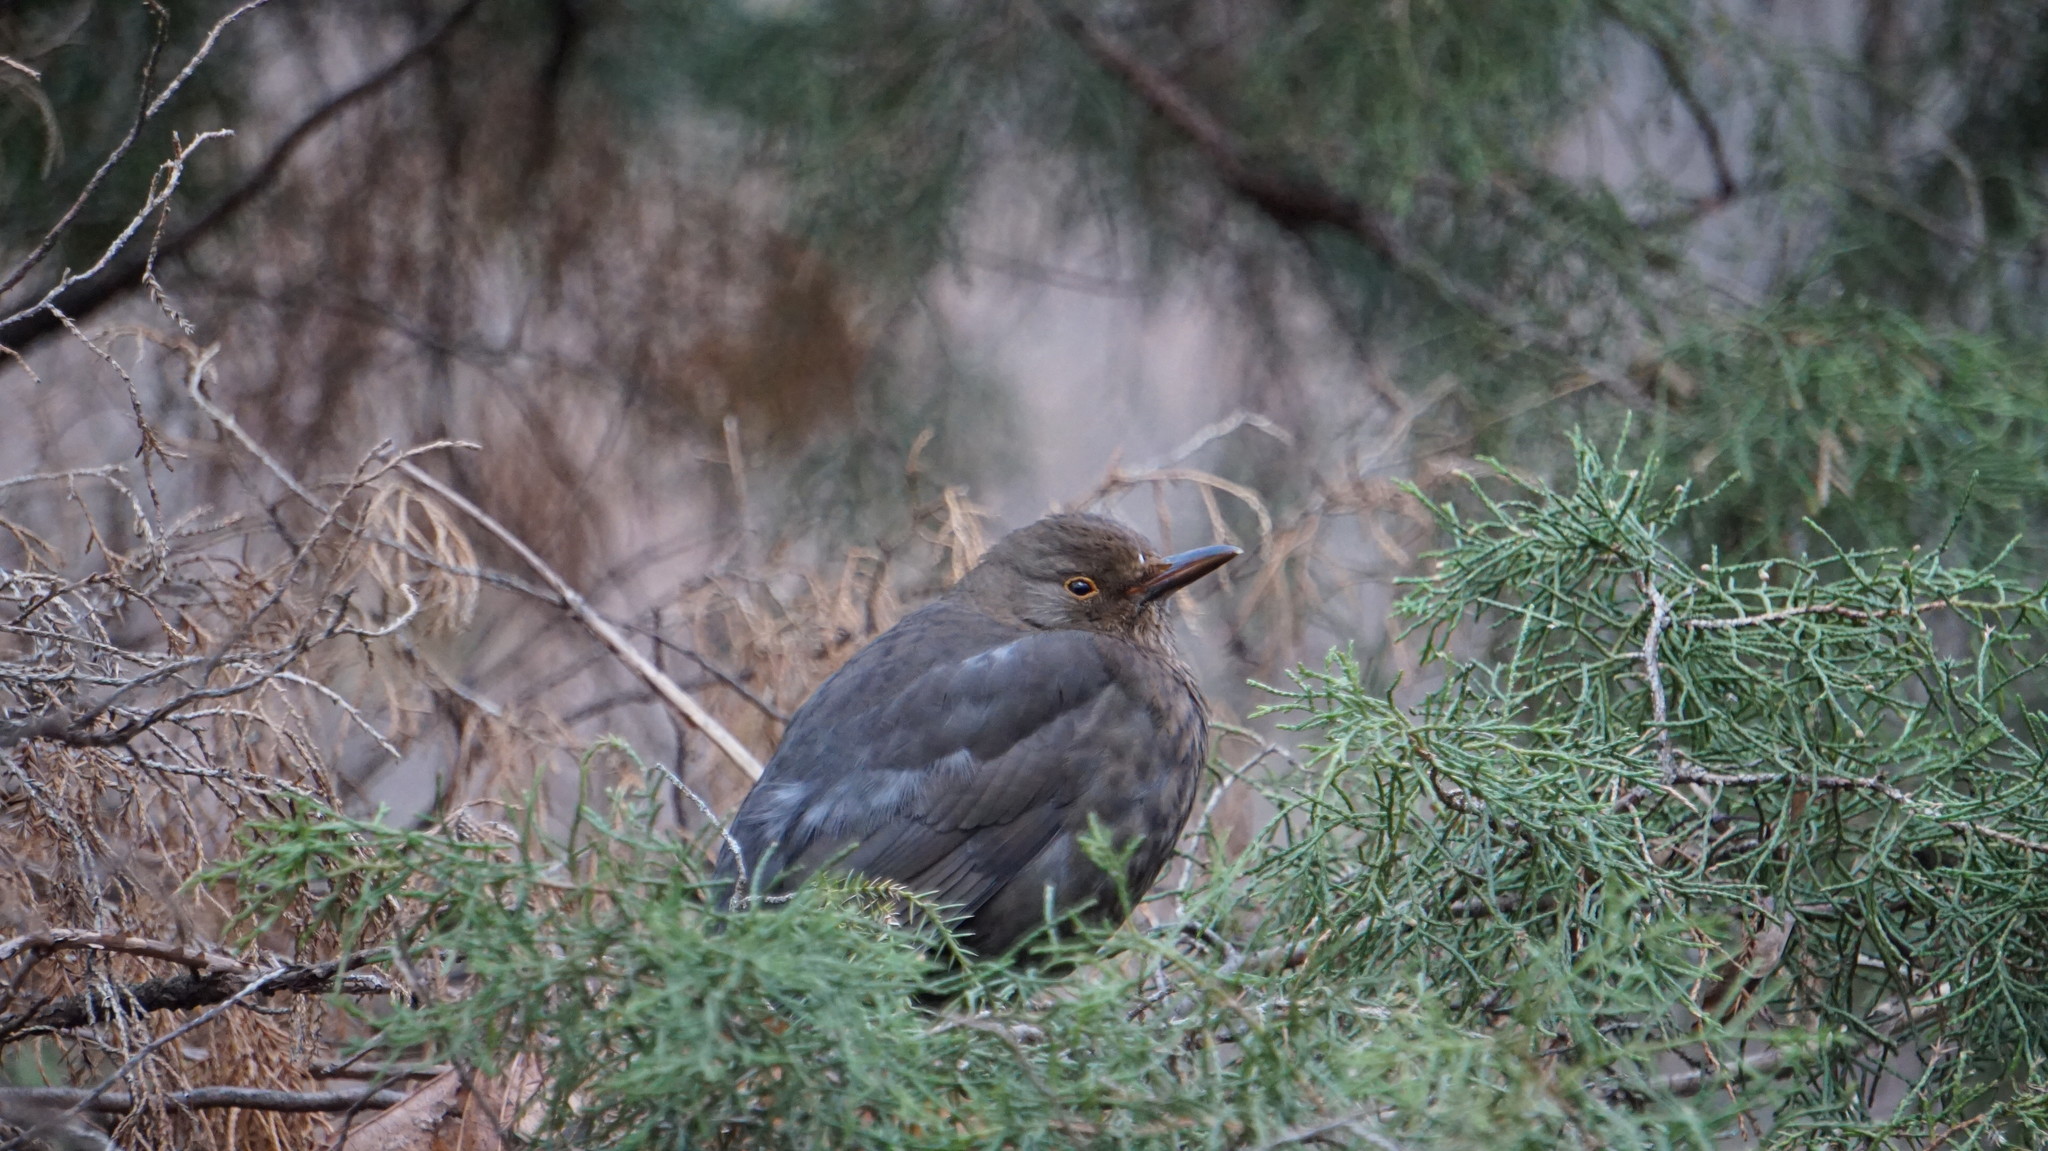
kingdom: Animalia
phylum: Chordata
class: Aves
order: Passeriformes
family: Turdidae
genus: Turdus
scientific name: Turdus merula
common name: Common blackbird
